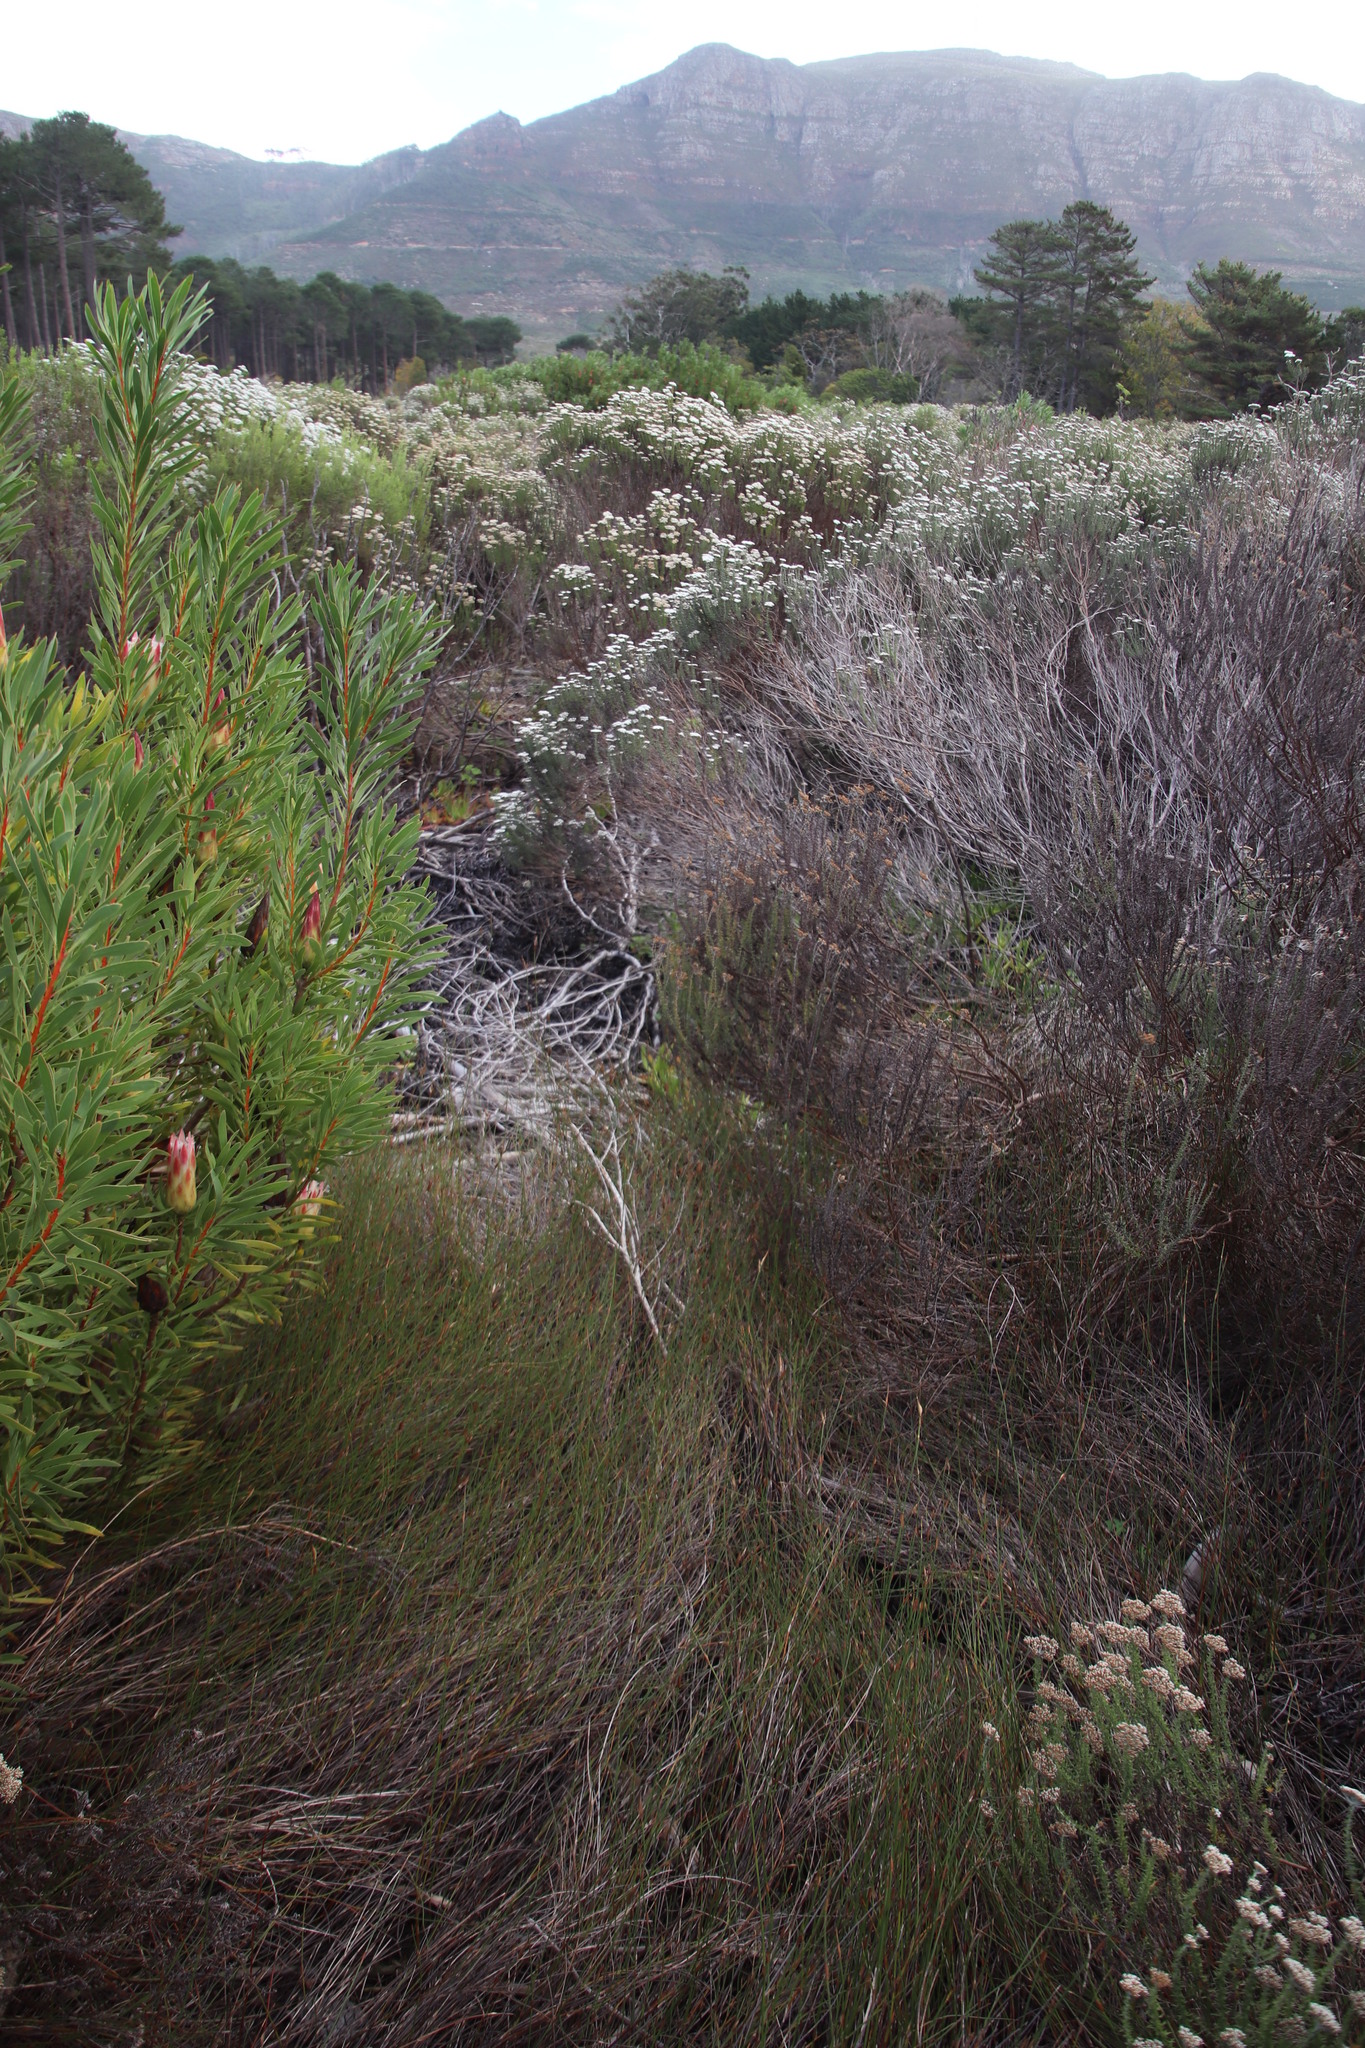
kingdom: Plantae
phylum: Tracheophyta
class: Liliopsida
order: Poales
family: Restionaceae
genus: Willdenowia
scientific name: Willdenowia sulcata
